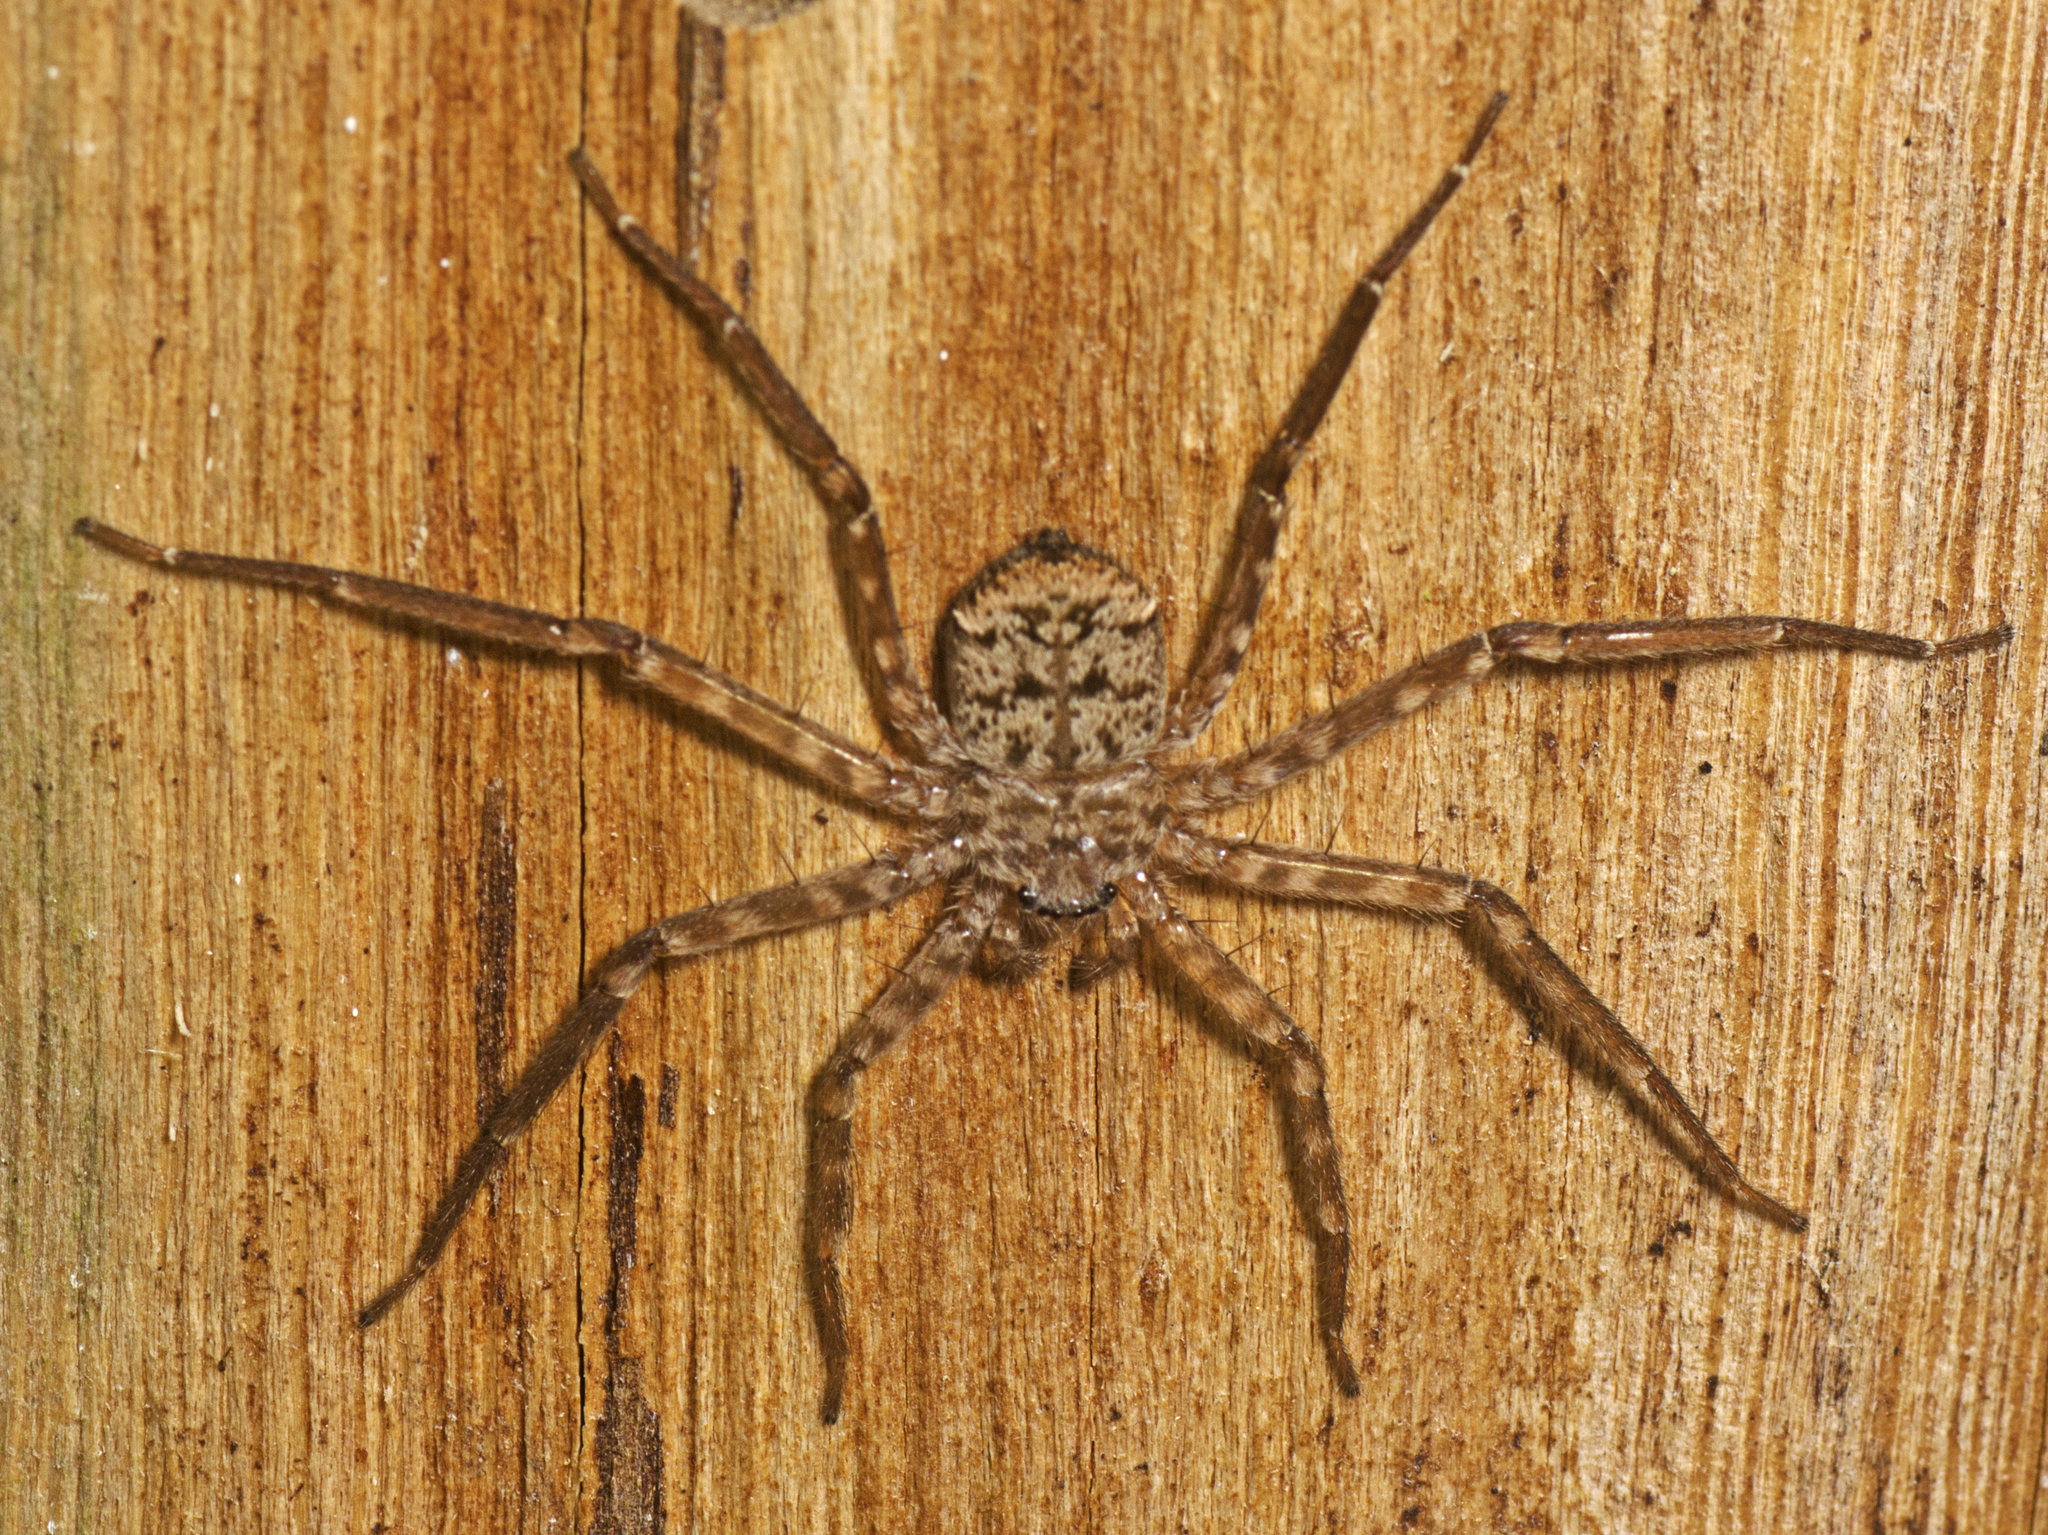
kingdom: Animalia
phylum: Arthropoda
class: Arachnida
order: Araneae
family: Selenopidae
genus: Karaops
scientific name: Karaops raveni
